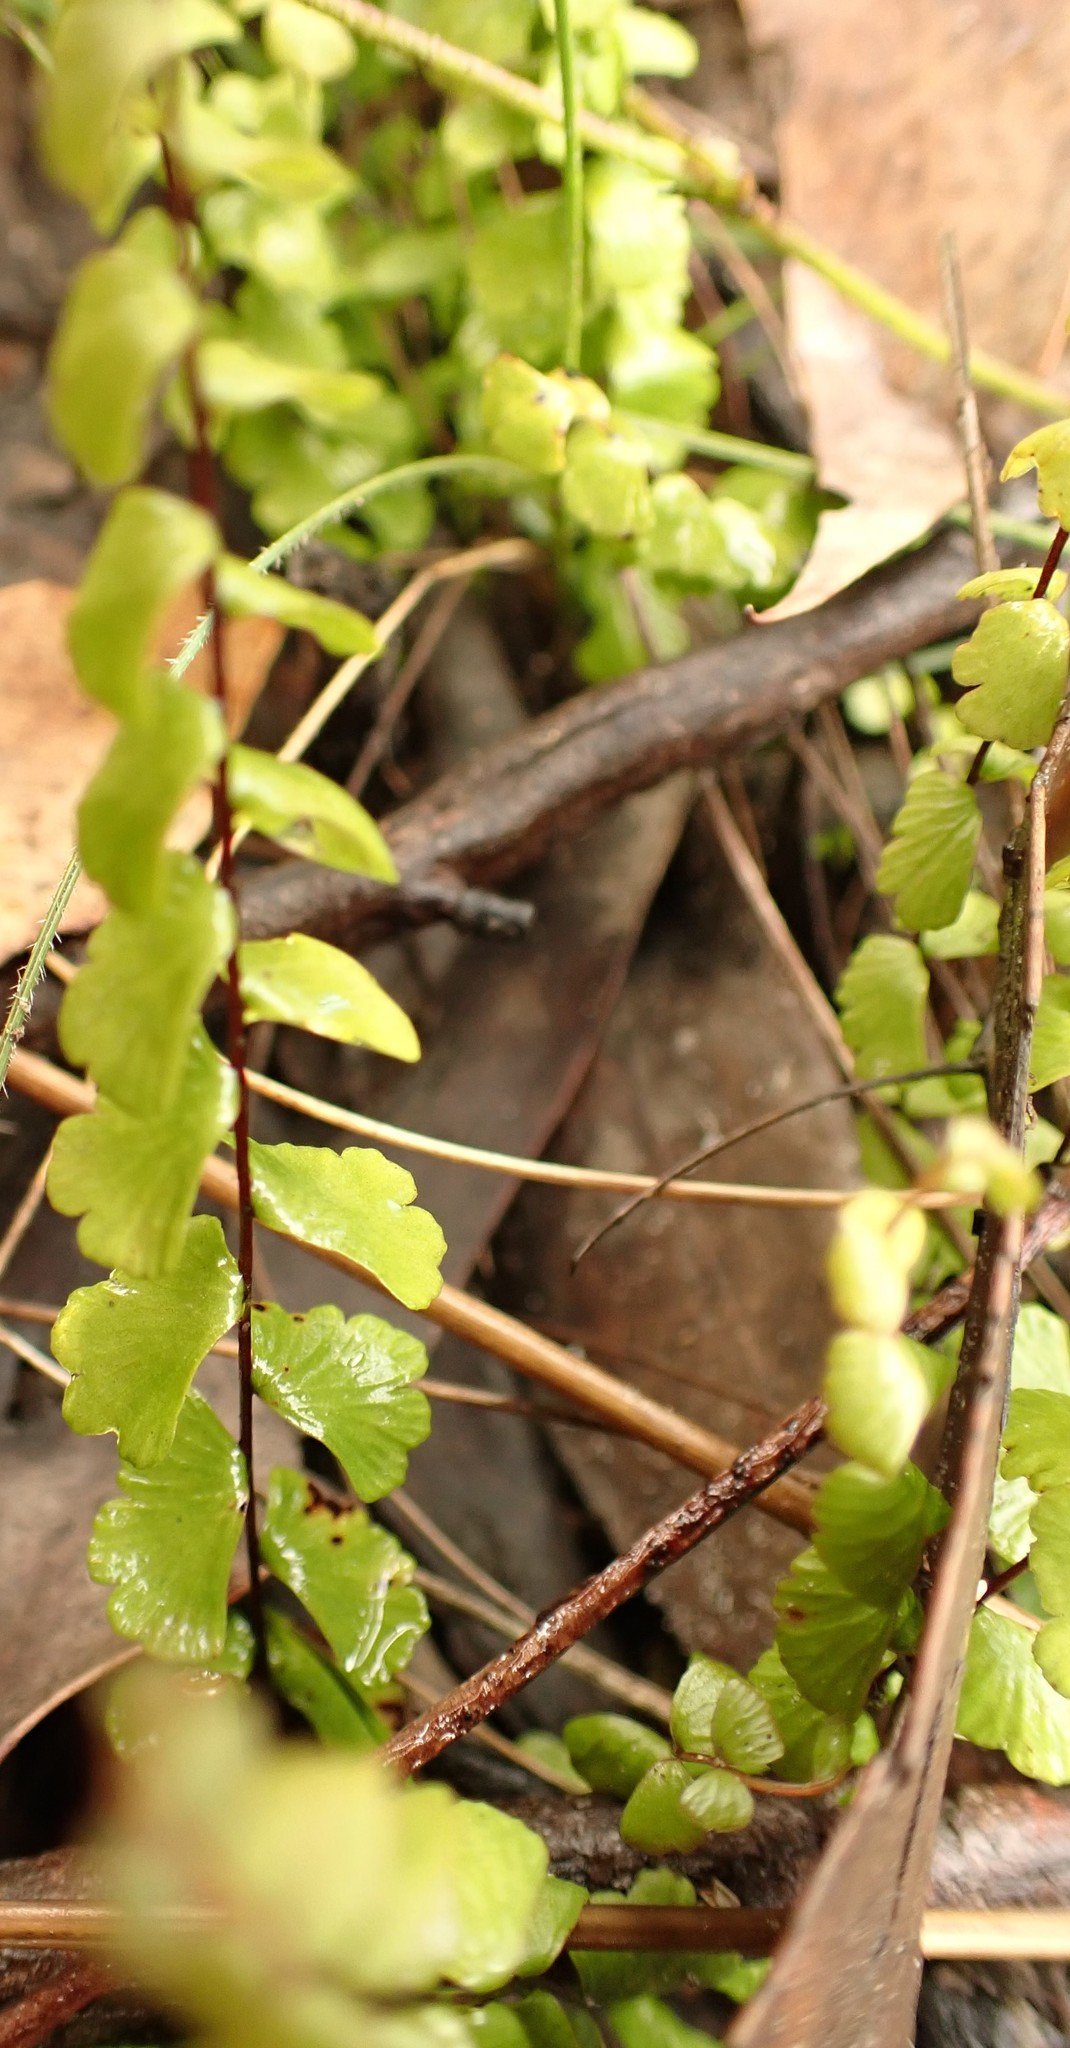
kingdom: Plantae
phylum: Tracheophyta
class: Polypodiopsida
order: Polypodiales
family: Lindsaeaceae
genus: Lindsaea
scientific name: Lindsaea linearis
